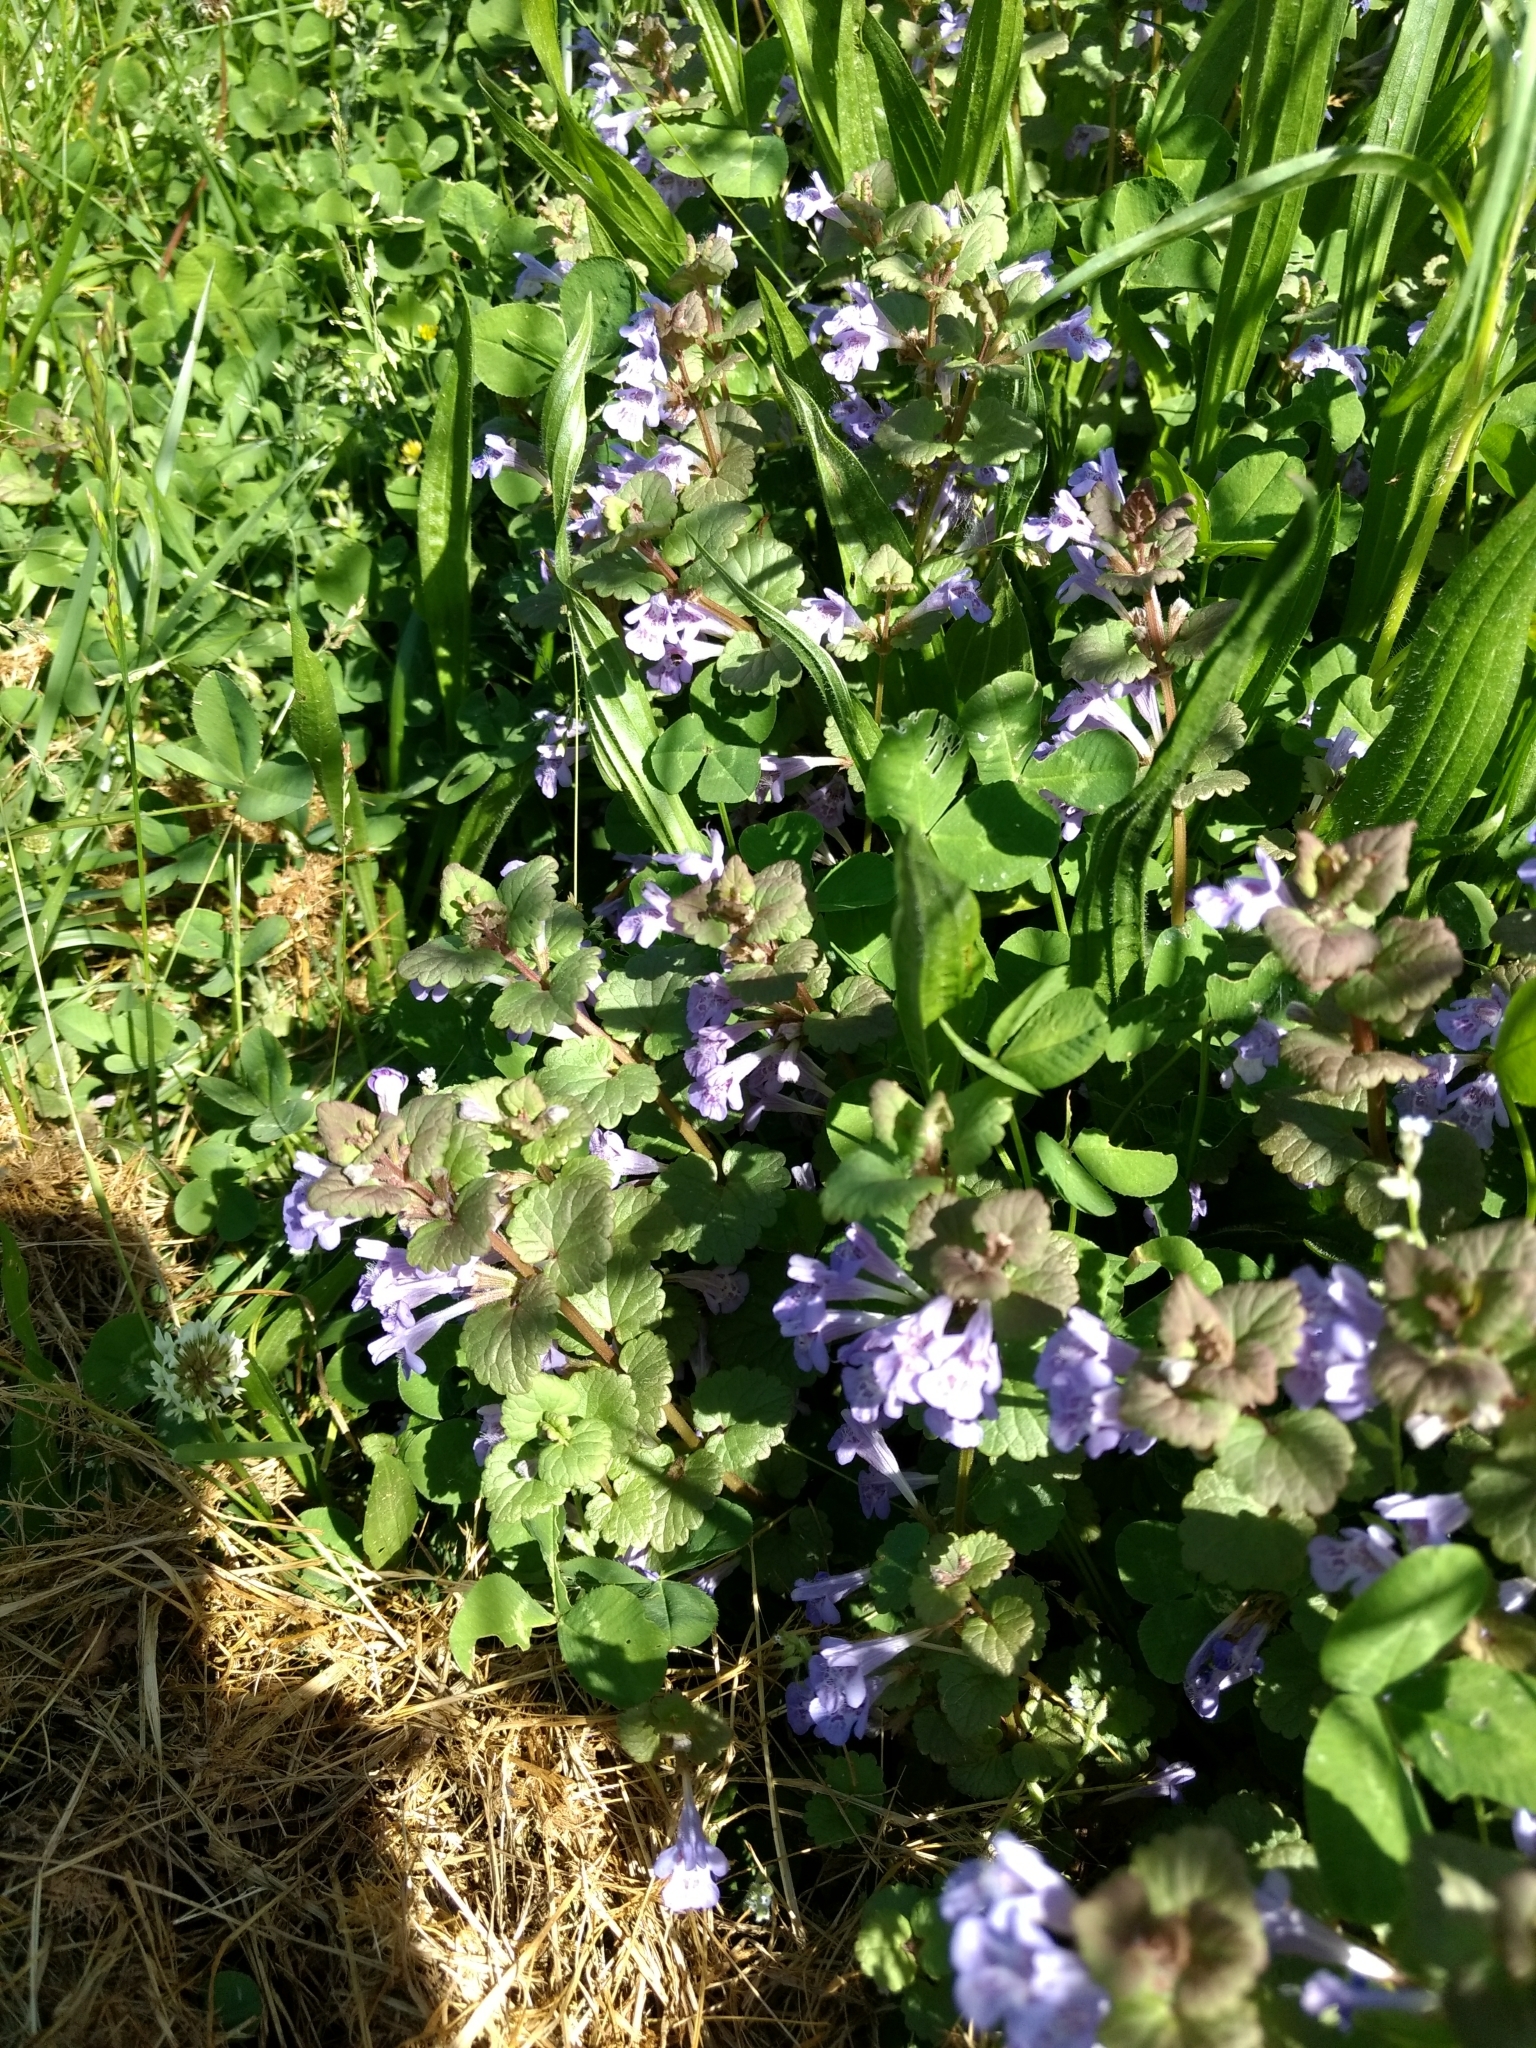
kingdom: Plantae
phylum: Tracheophyta
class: Magnoliopsida
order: Lamiales
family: Lamiaceae
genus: Glechoma
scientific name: Glechoma hederacea
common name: Ground ivy
